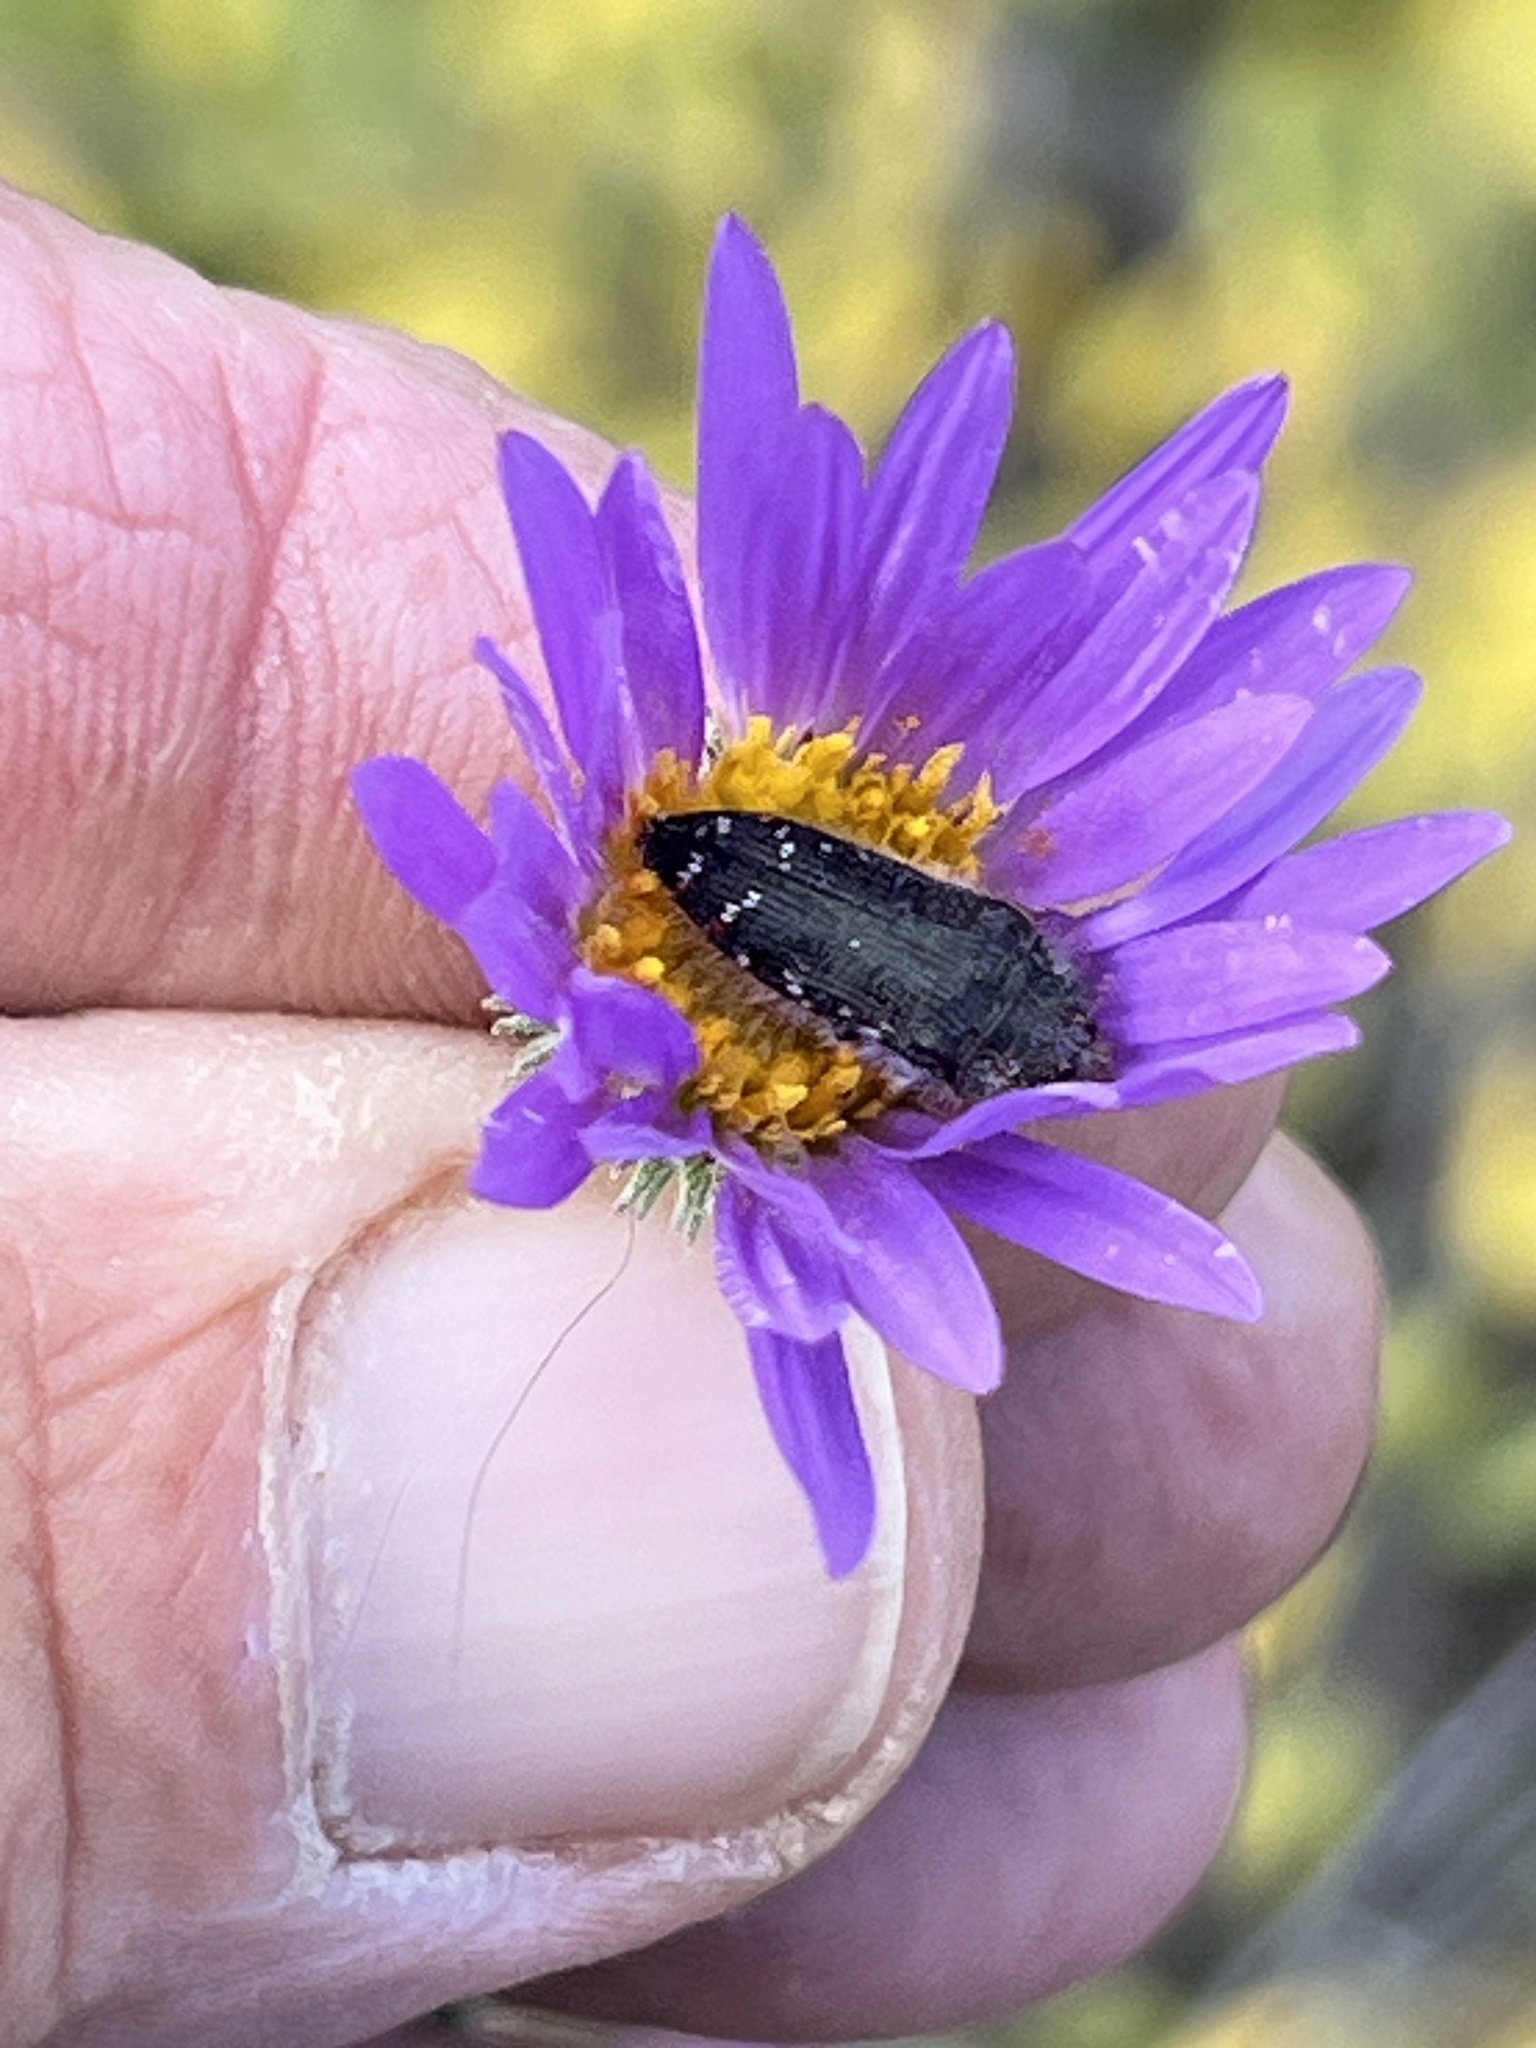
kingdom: Animalia
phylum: Arthropoda
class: Insecta
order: Coleoptera
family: Buprestidae
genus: Acmaeodera
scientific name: Acmaeodera rubronotata
